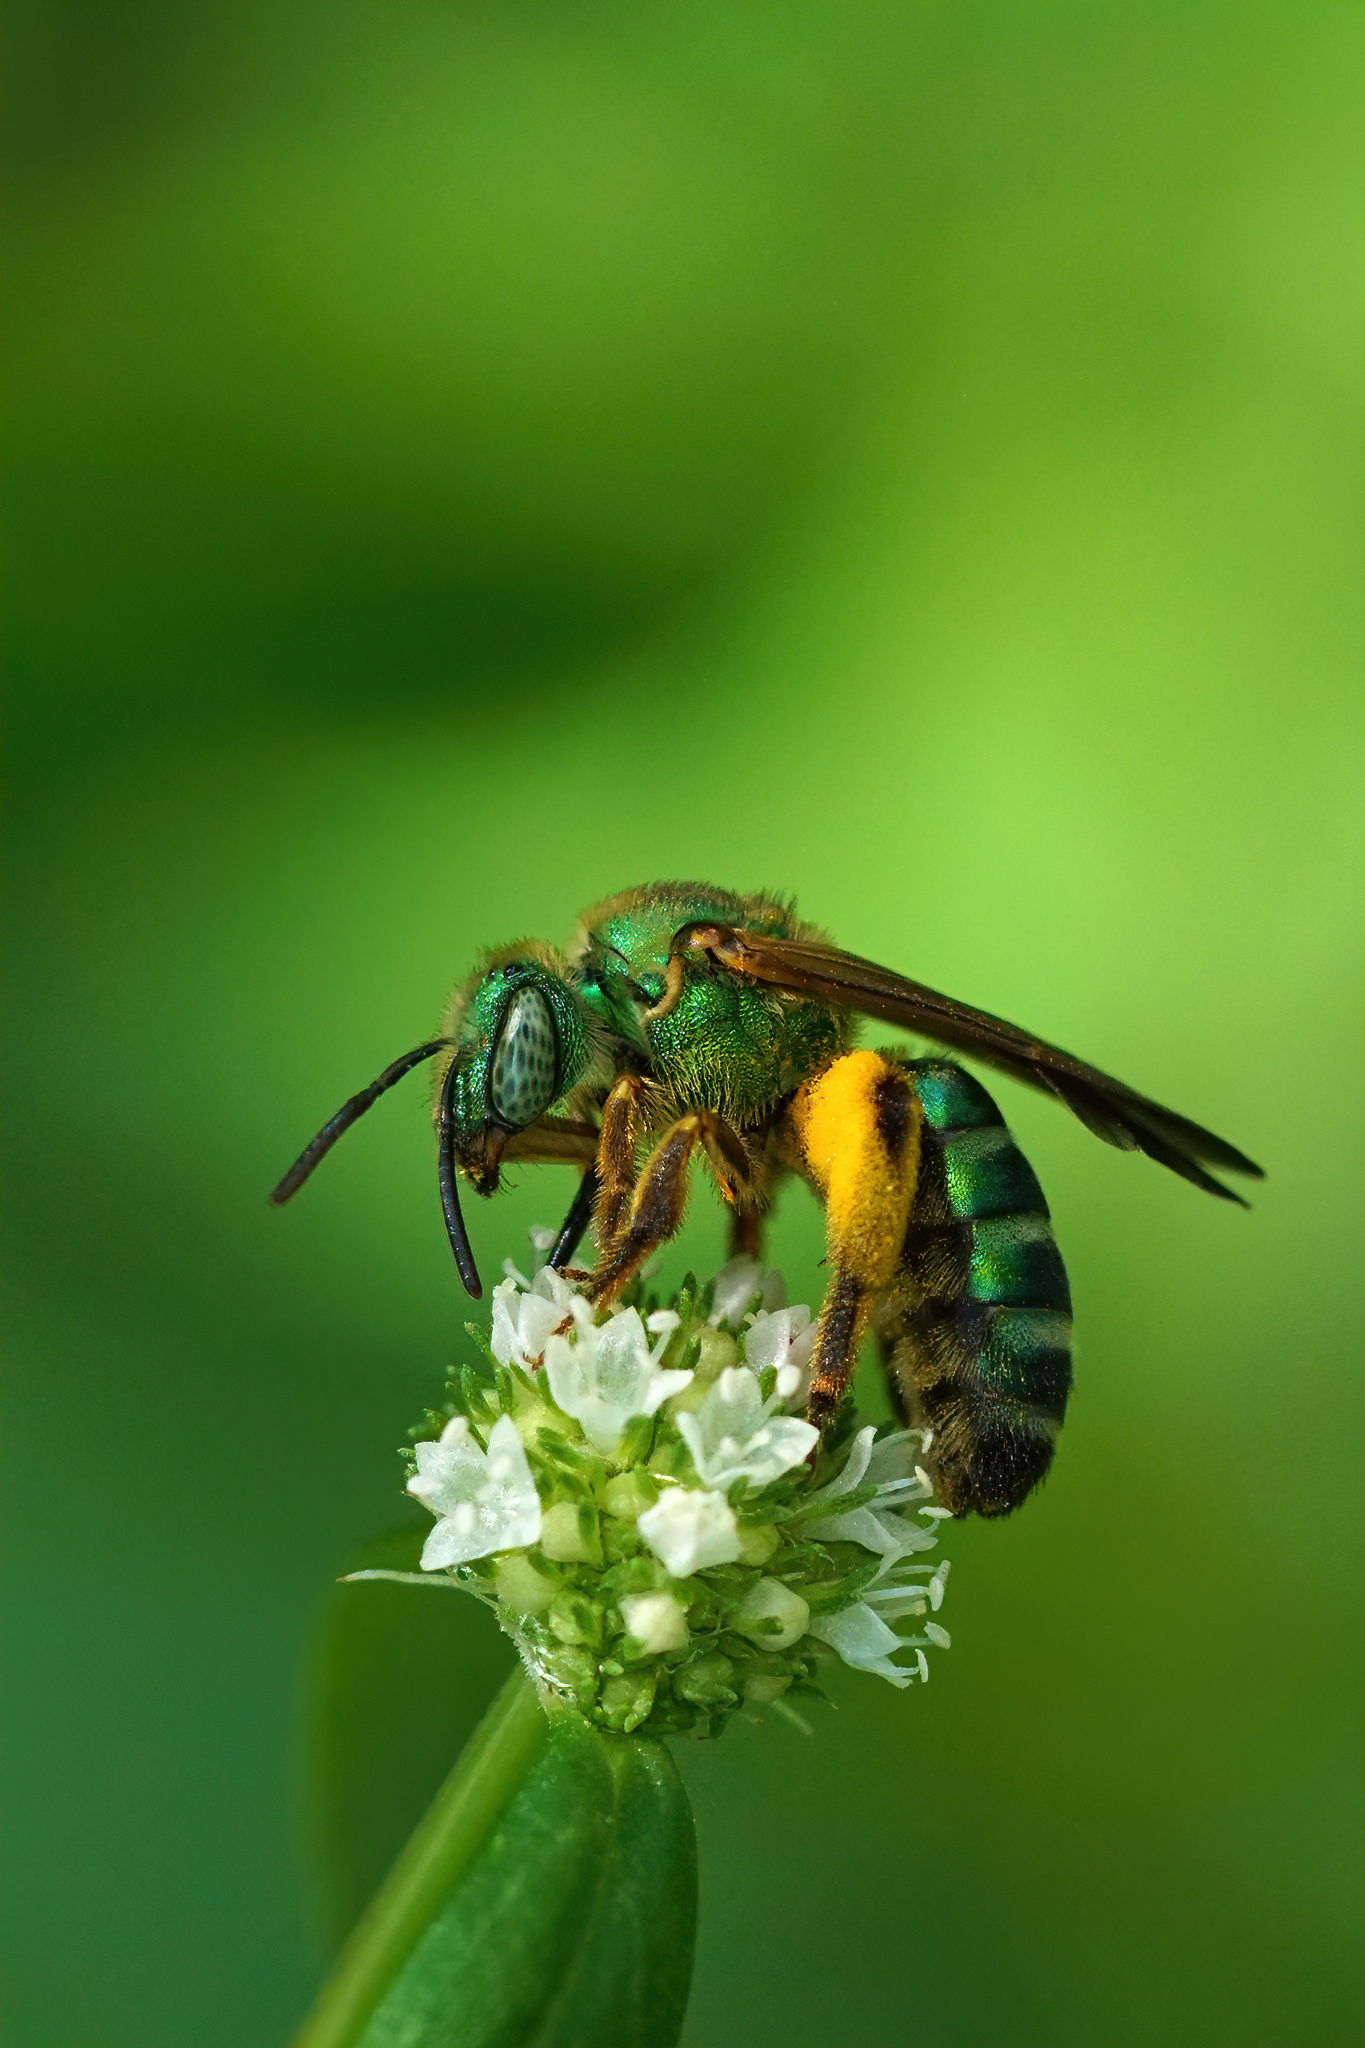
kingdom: Animalia
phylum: Arthropoda
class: Insecta
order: Hymenoptera
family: Halictidae
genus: Agapostemon
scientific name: Agapostemon splendens
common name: Brown-winged striped sweat bee
